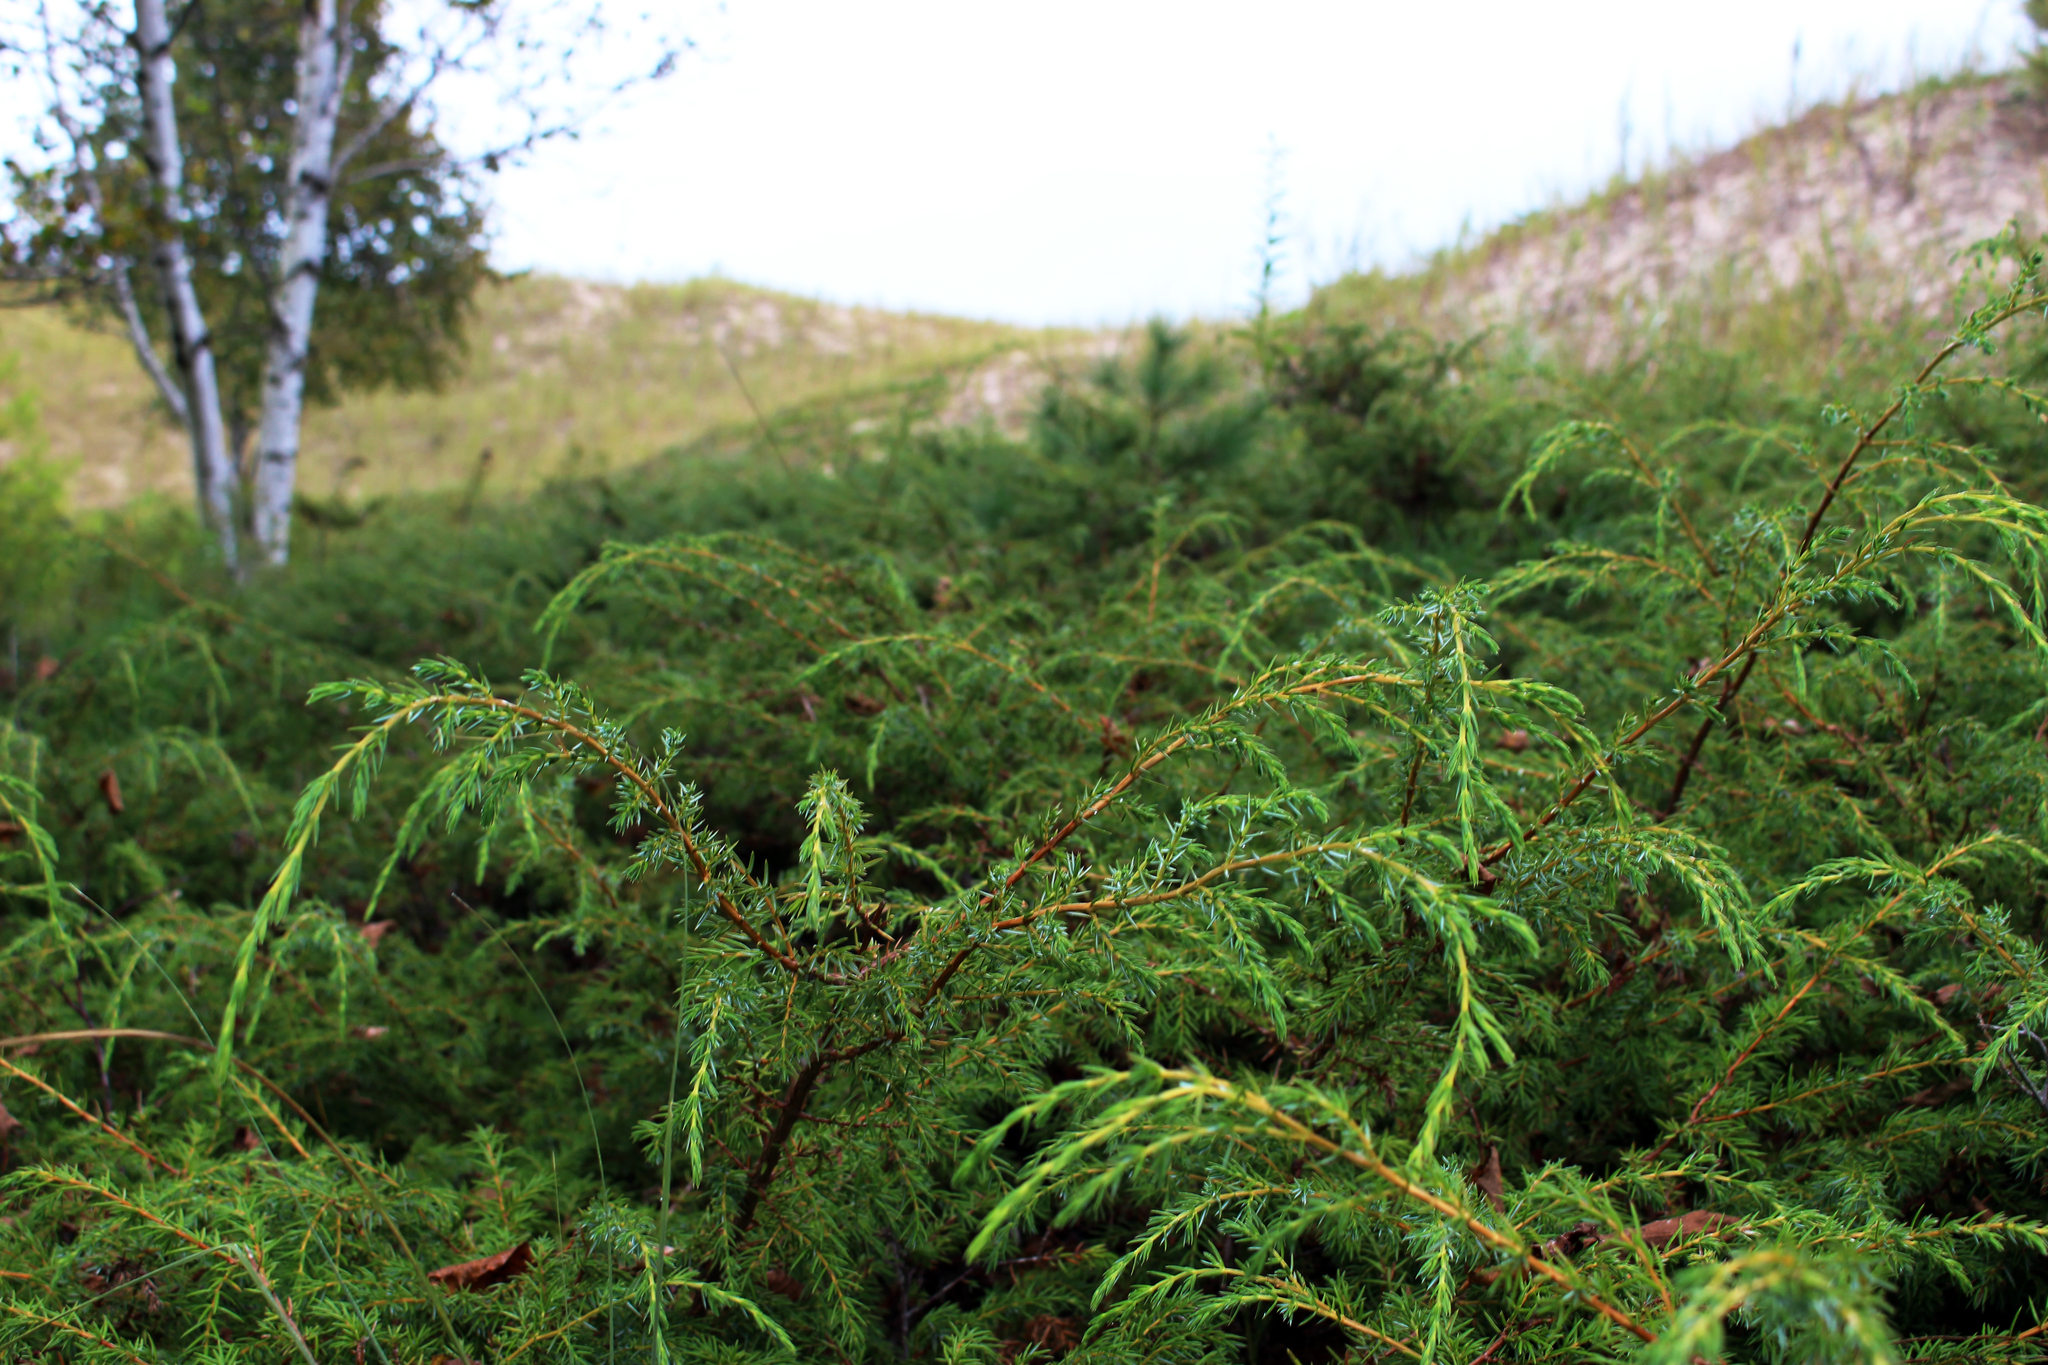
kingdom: Plantae
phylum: Tracheophyta
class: Pinopsida
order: Pinales
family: Cupressaceae
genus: Juniperus
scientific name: Juniperus horizontalis
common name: Creeping juniper
